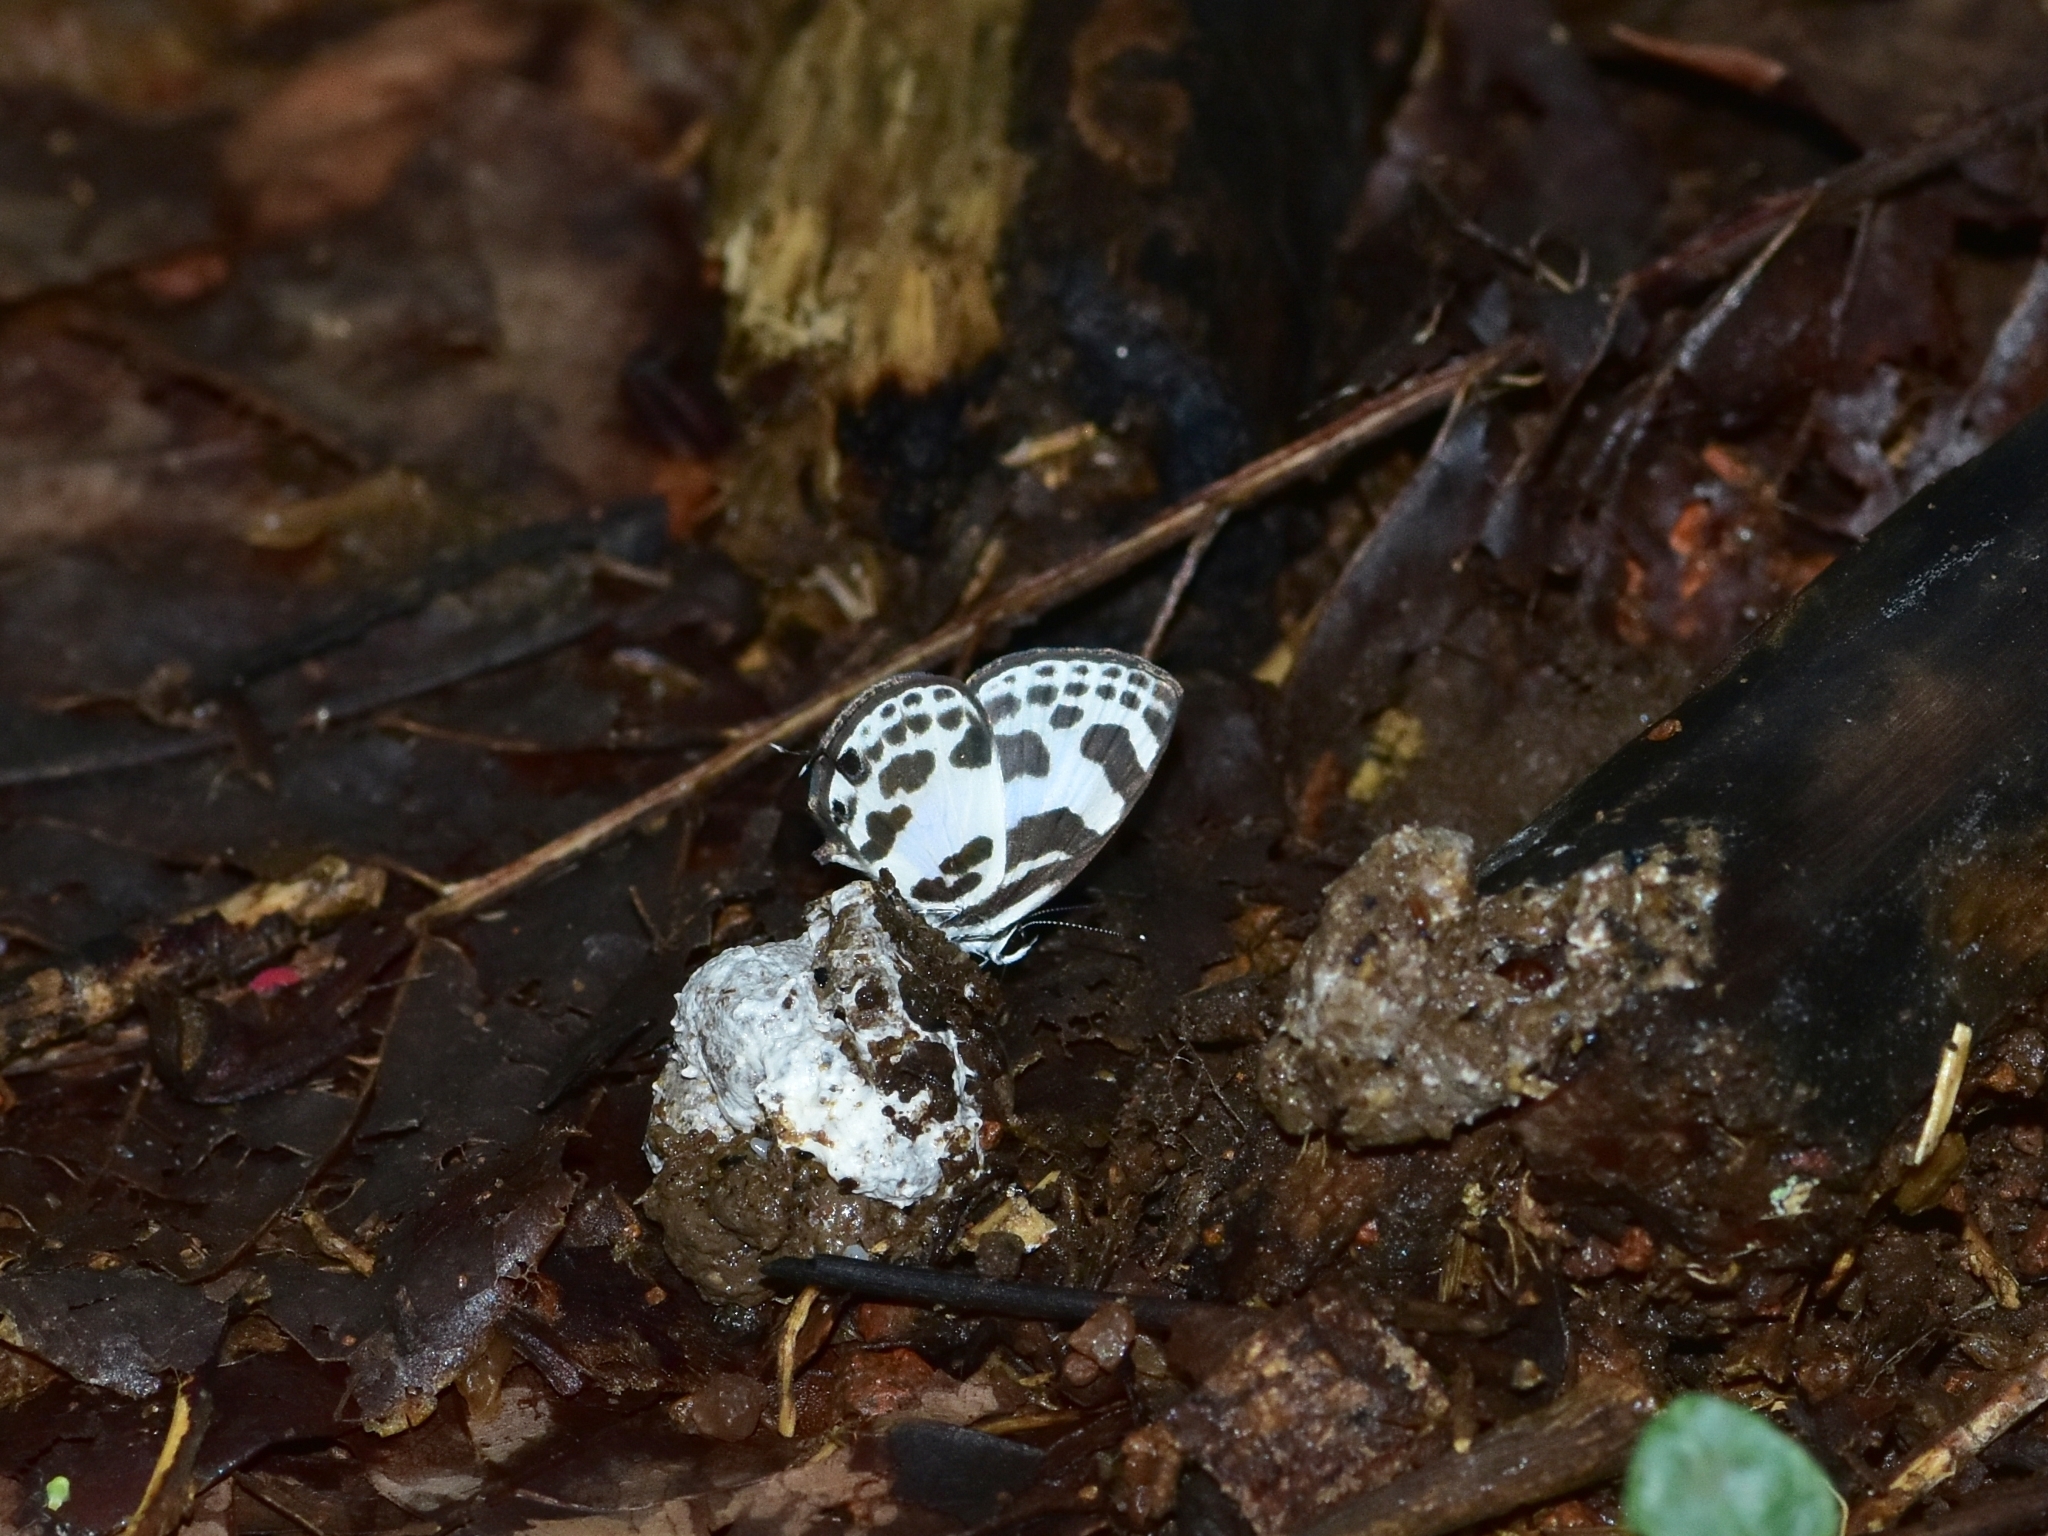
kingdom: Animalia
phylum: Arthropoda
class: Insecta
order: Lepidoptera
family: Lycaenidae
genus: Discolampa
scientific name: Discolampa ethion
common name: Banded blue pierrot
